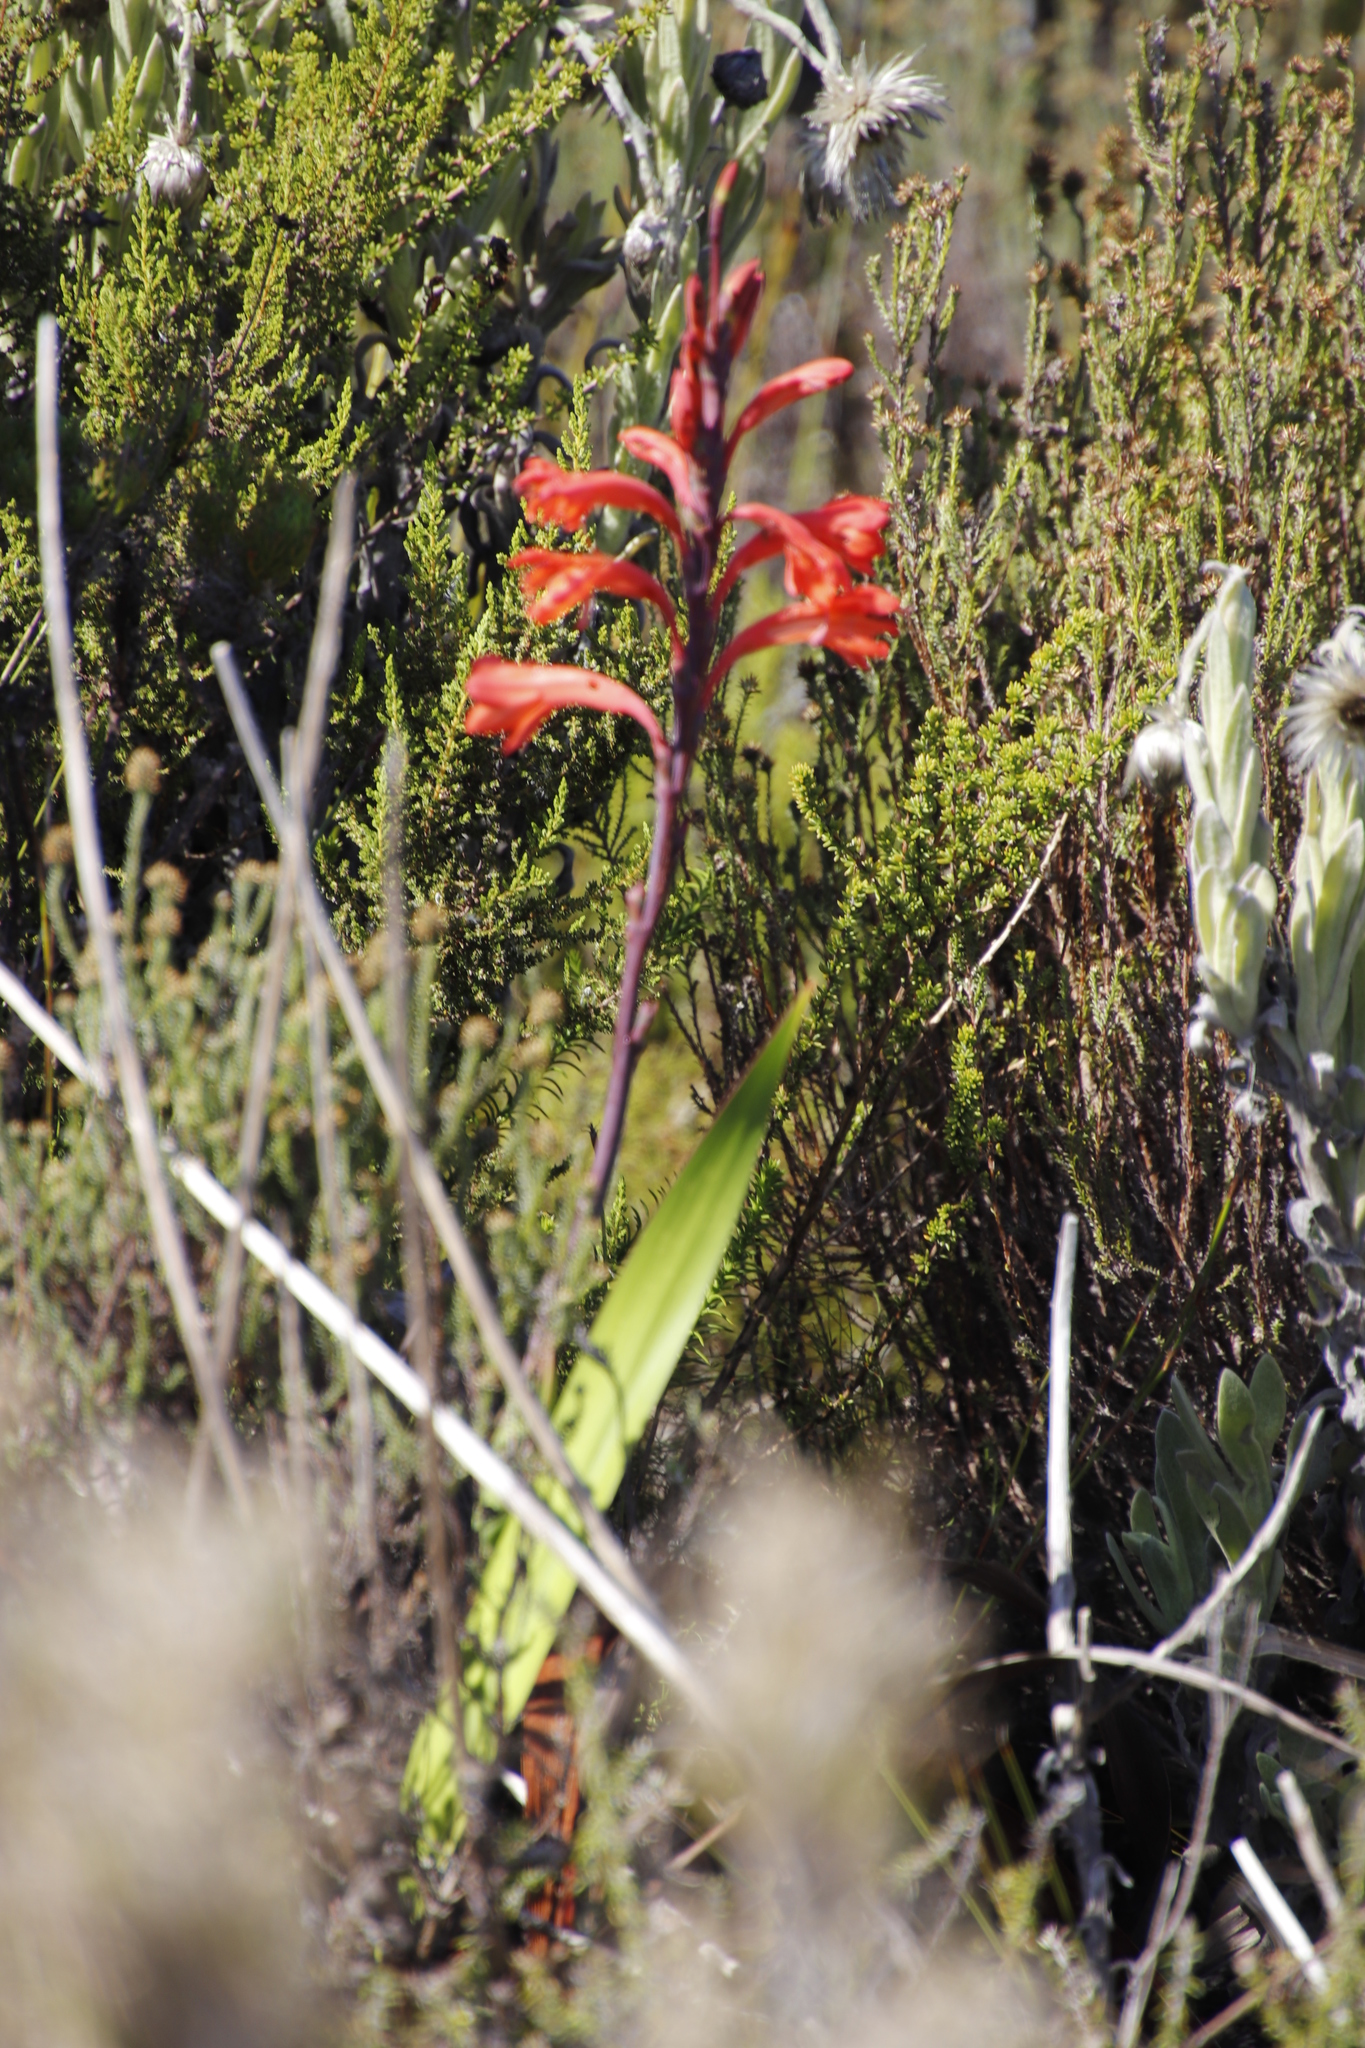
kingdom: Plantae
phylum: Tracheophyta
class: Liliopsida
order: Asparagales
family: Iridaceae
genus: Watsonia
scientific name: Watsonia tabularis
